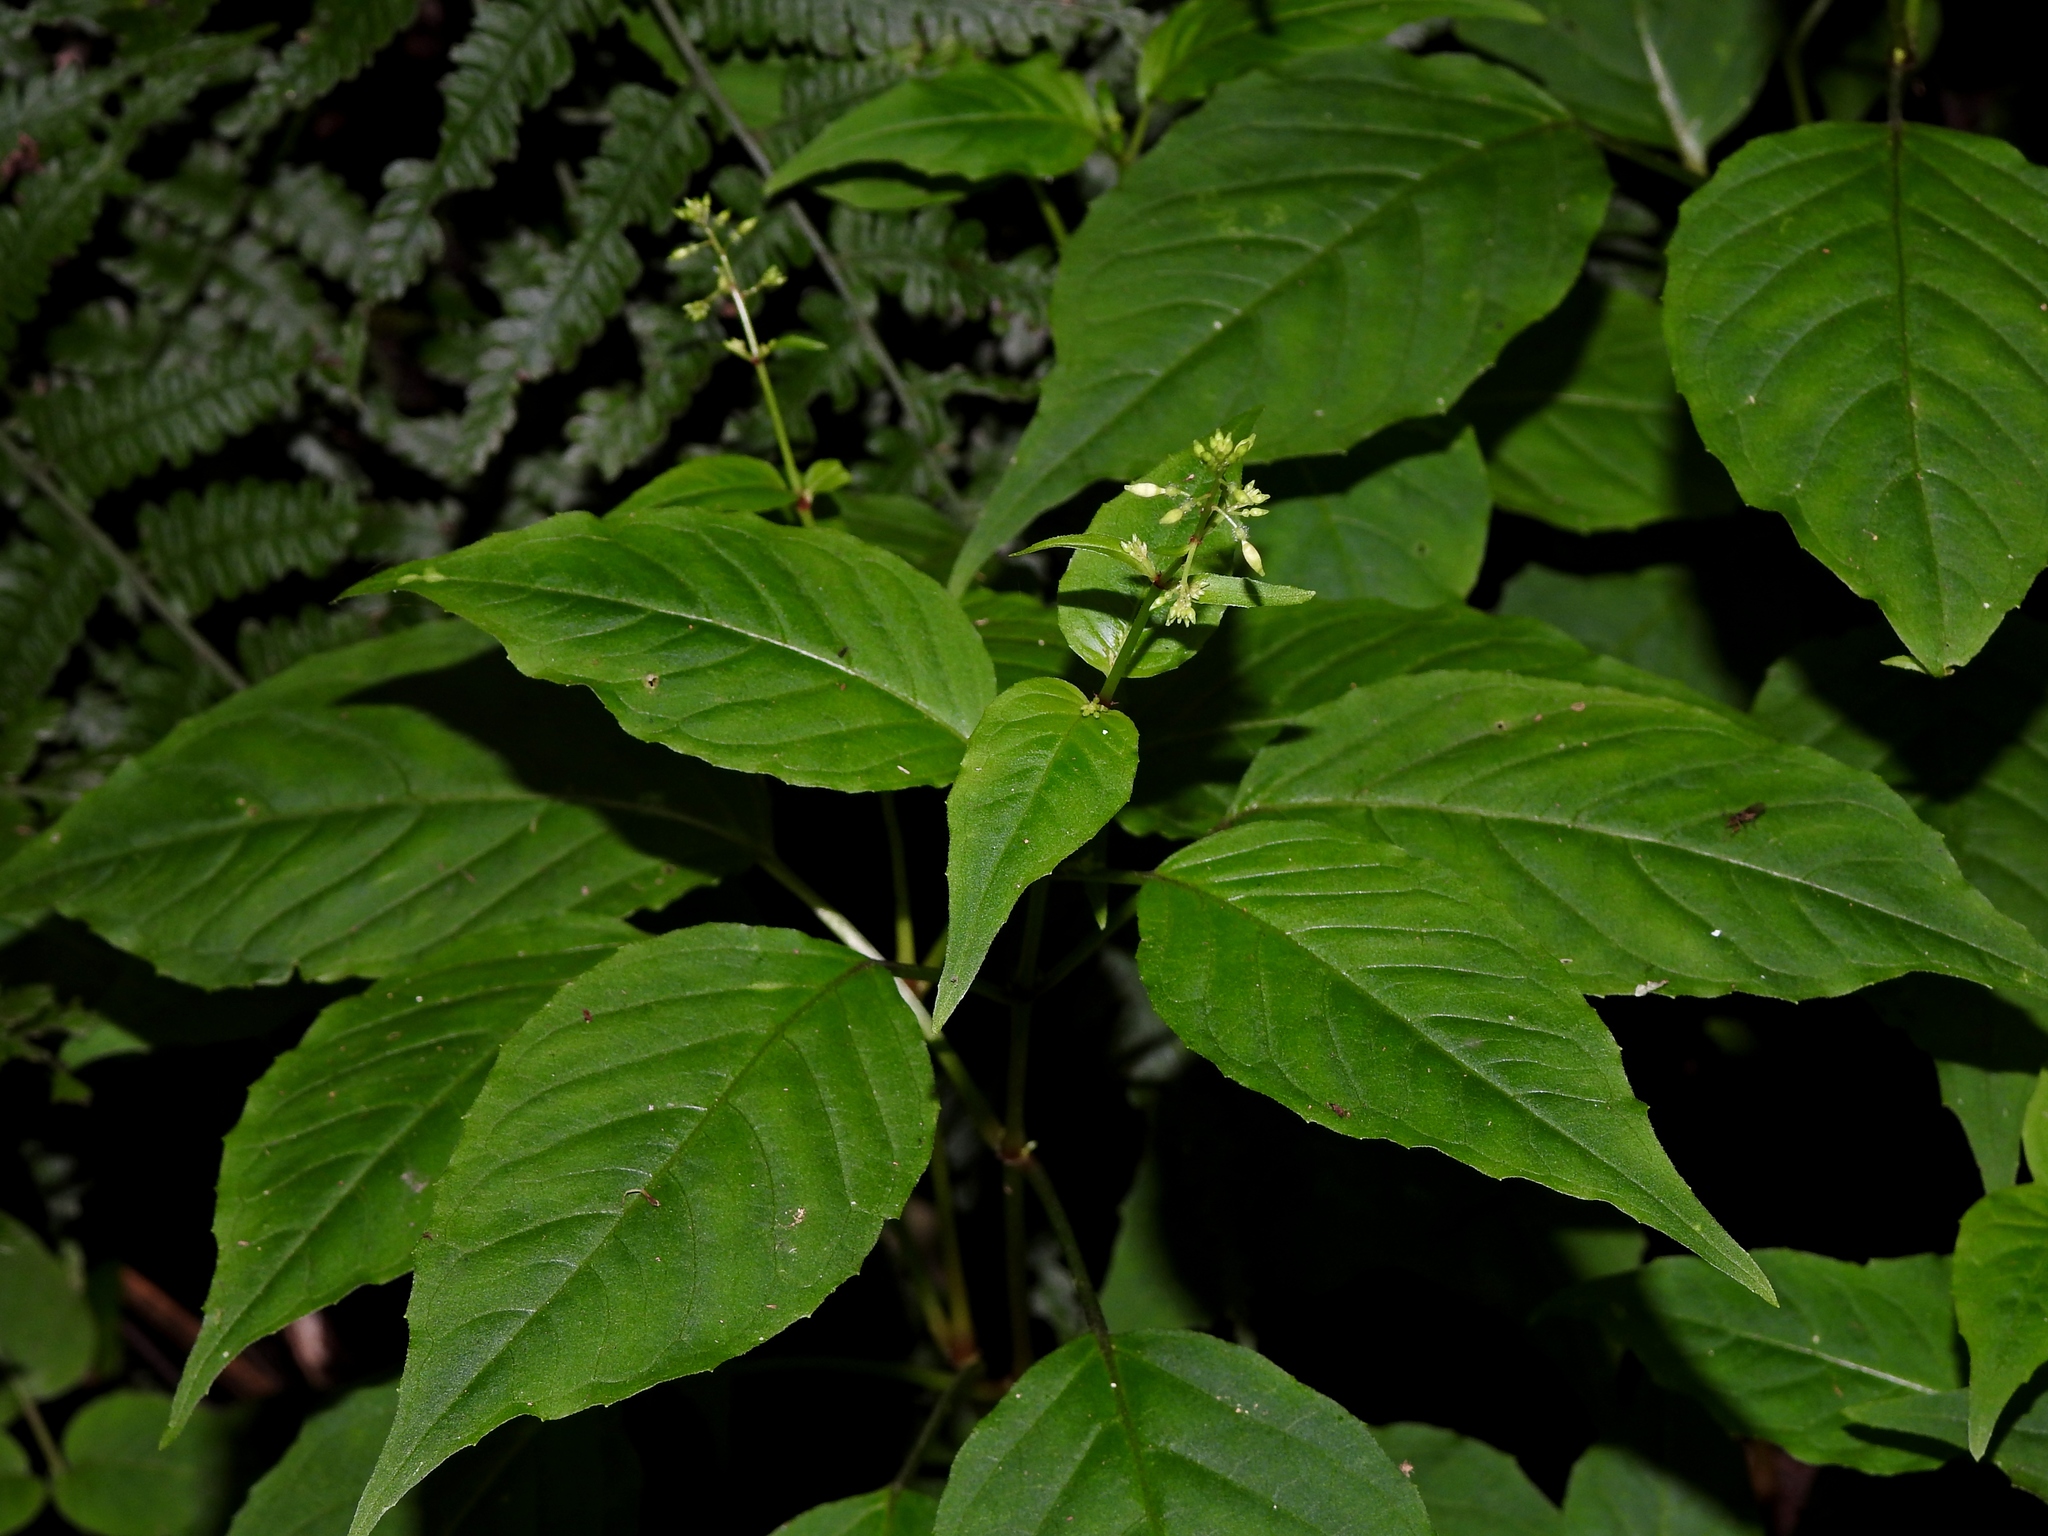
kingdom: Plantae
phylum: Tracheophyta
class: Magnoliopsida
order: Myrtales
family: Onagraceae
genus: Circaea
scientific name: Circaea erubescens
